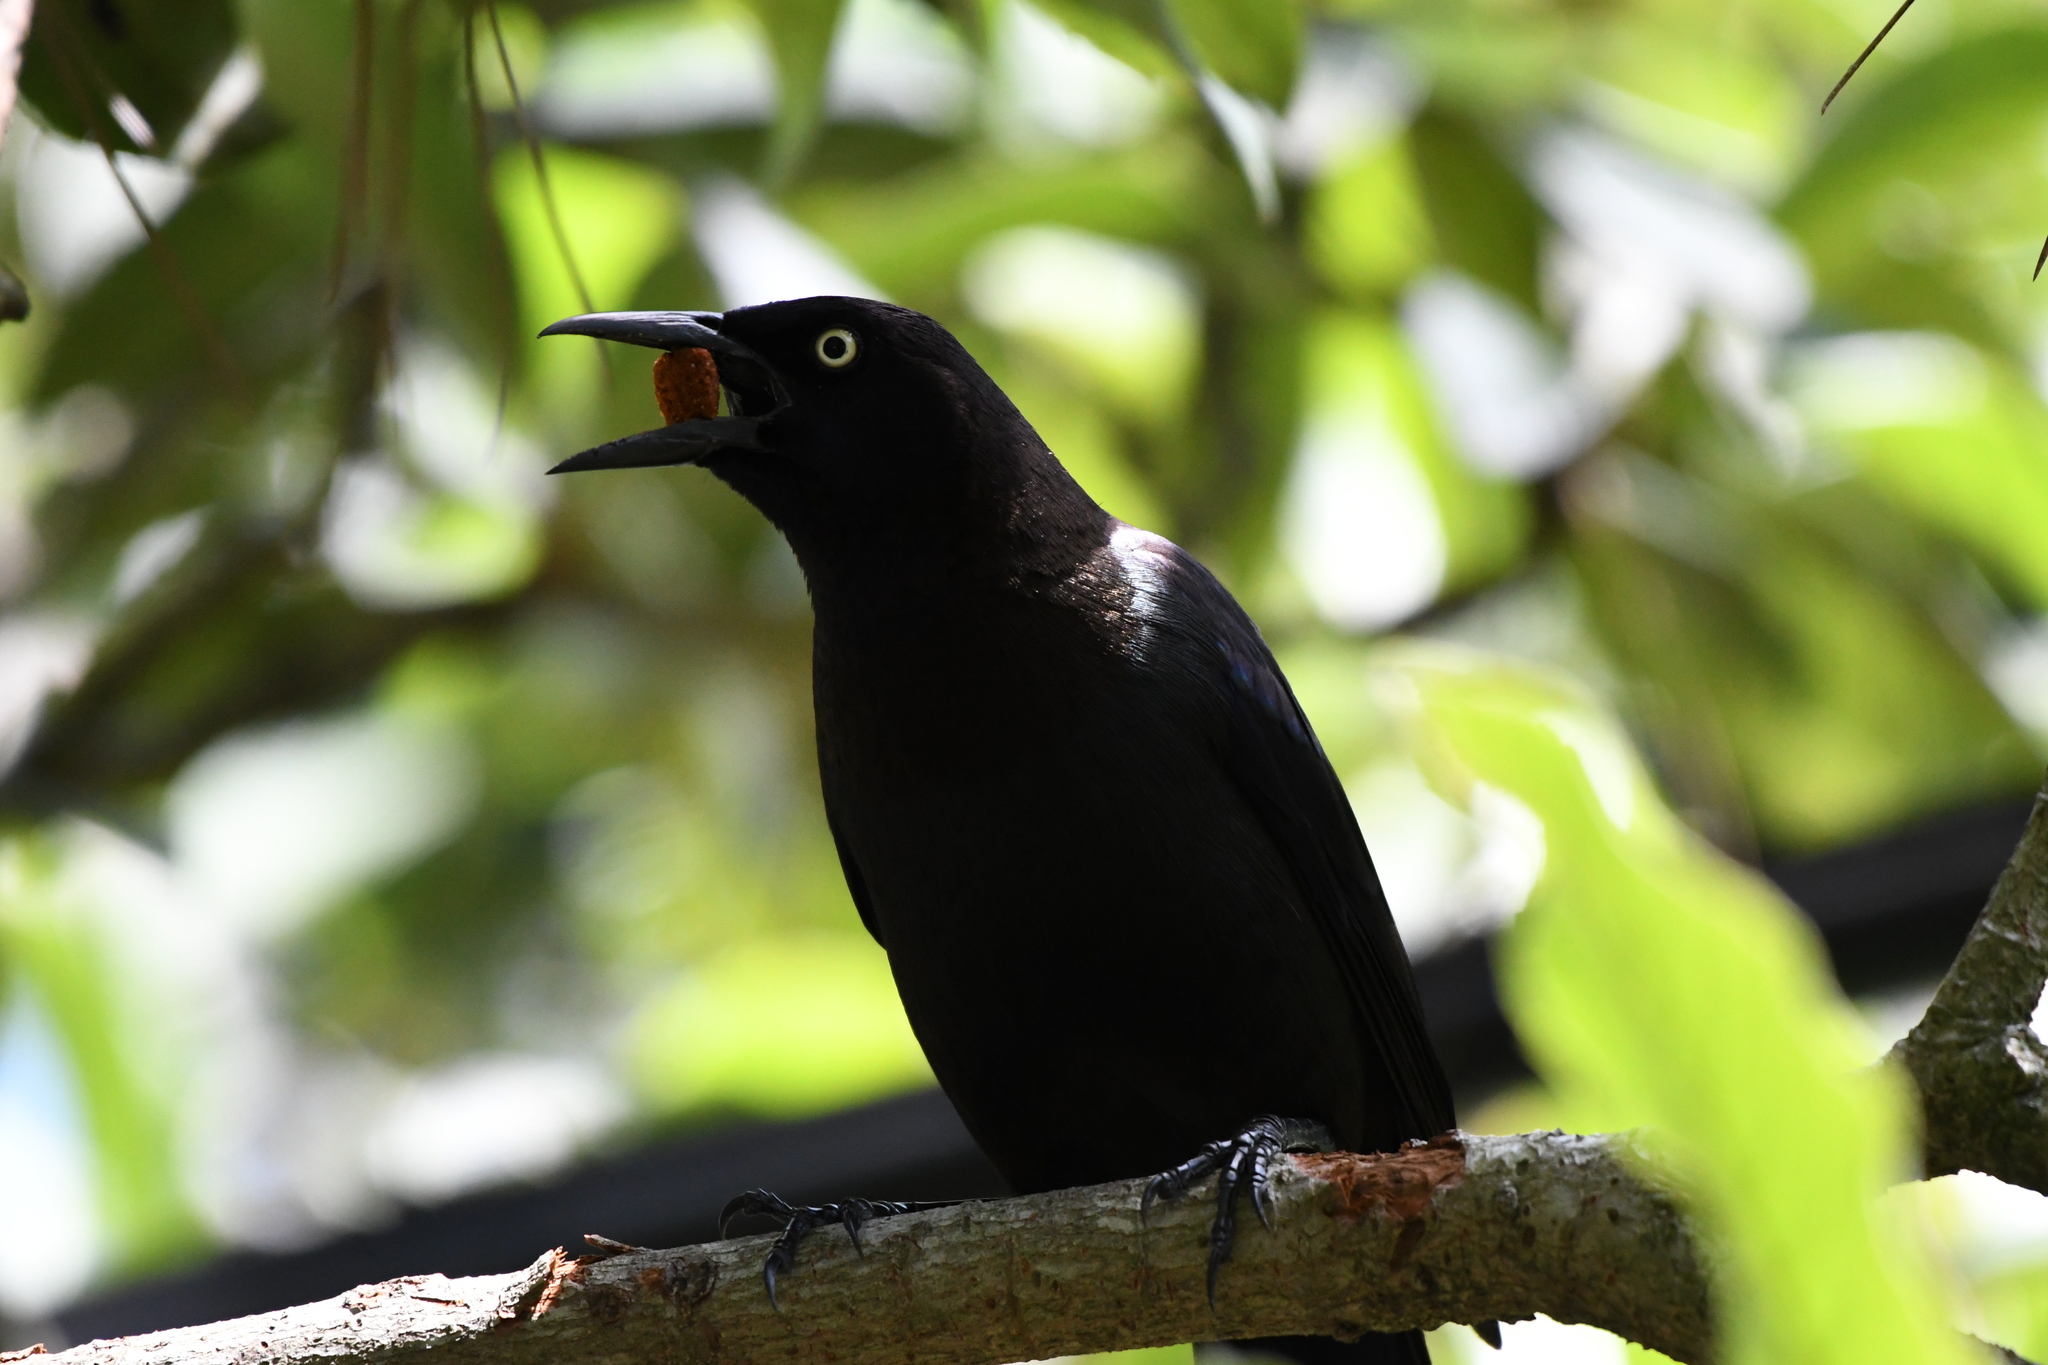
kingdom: Animalia
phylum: Chordata
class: Aves
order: Passeriformes
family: Icteridae
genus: Quiscalus
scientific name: Quiscalus quiscula
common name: Common grackle
